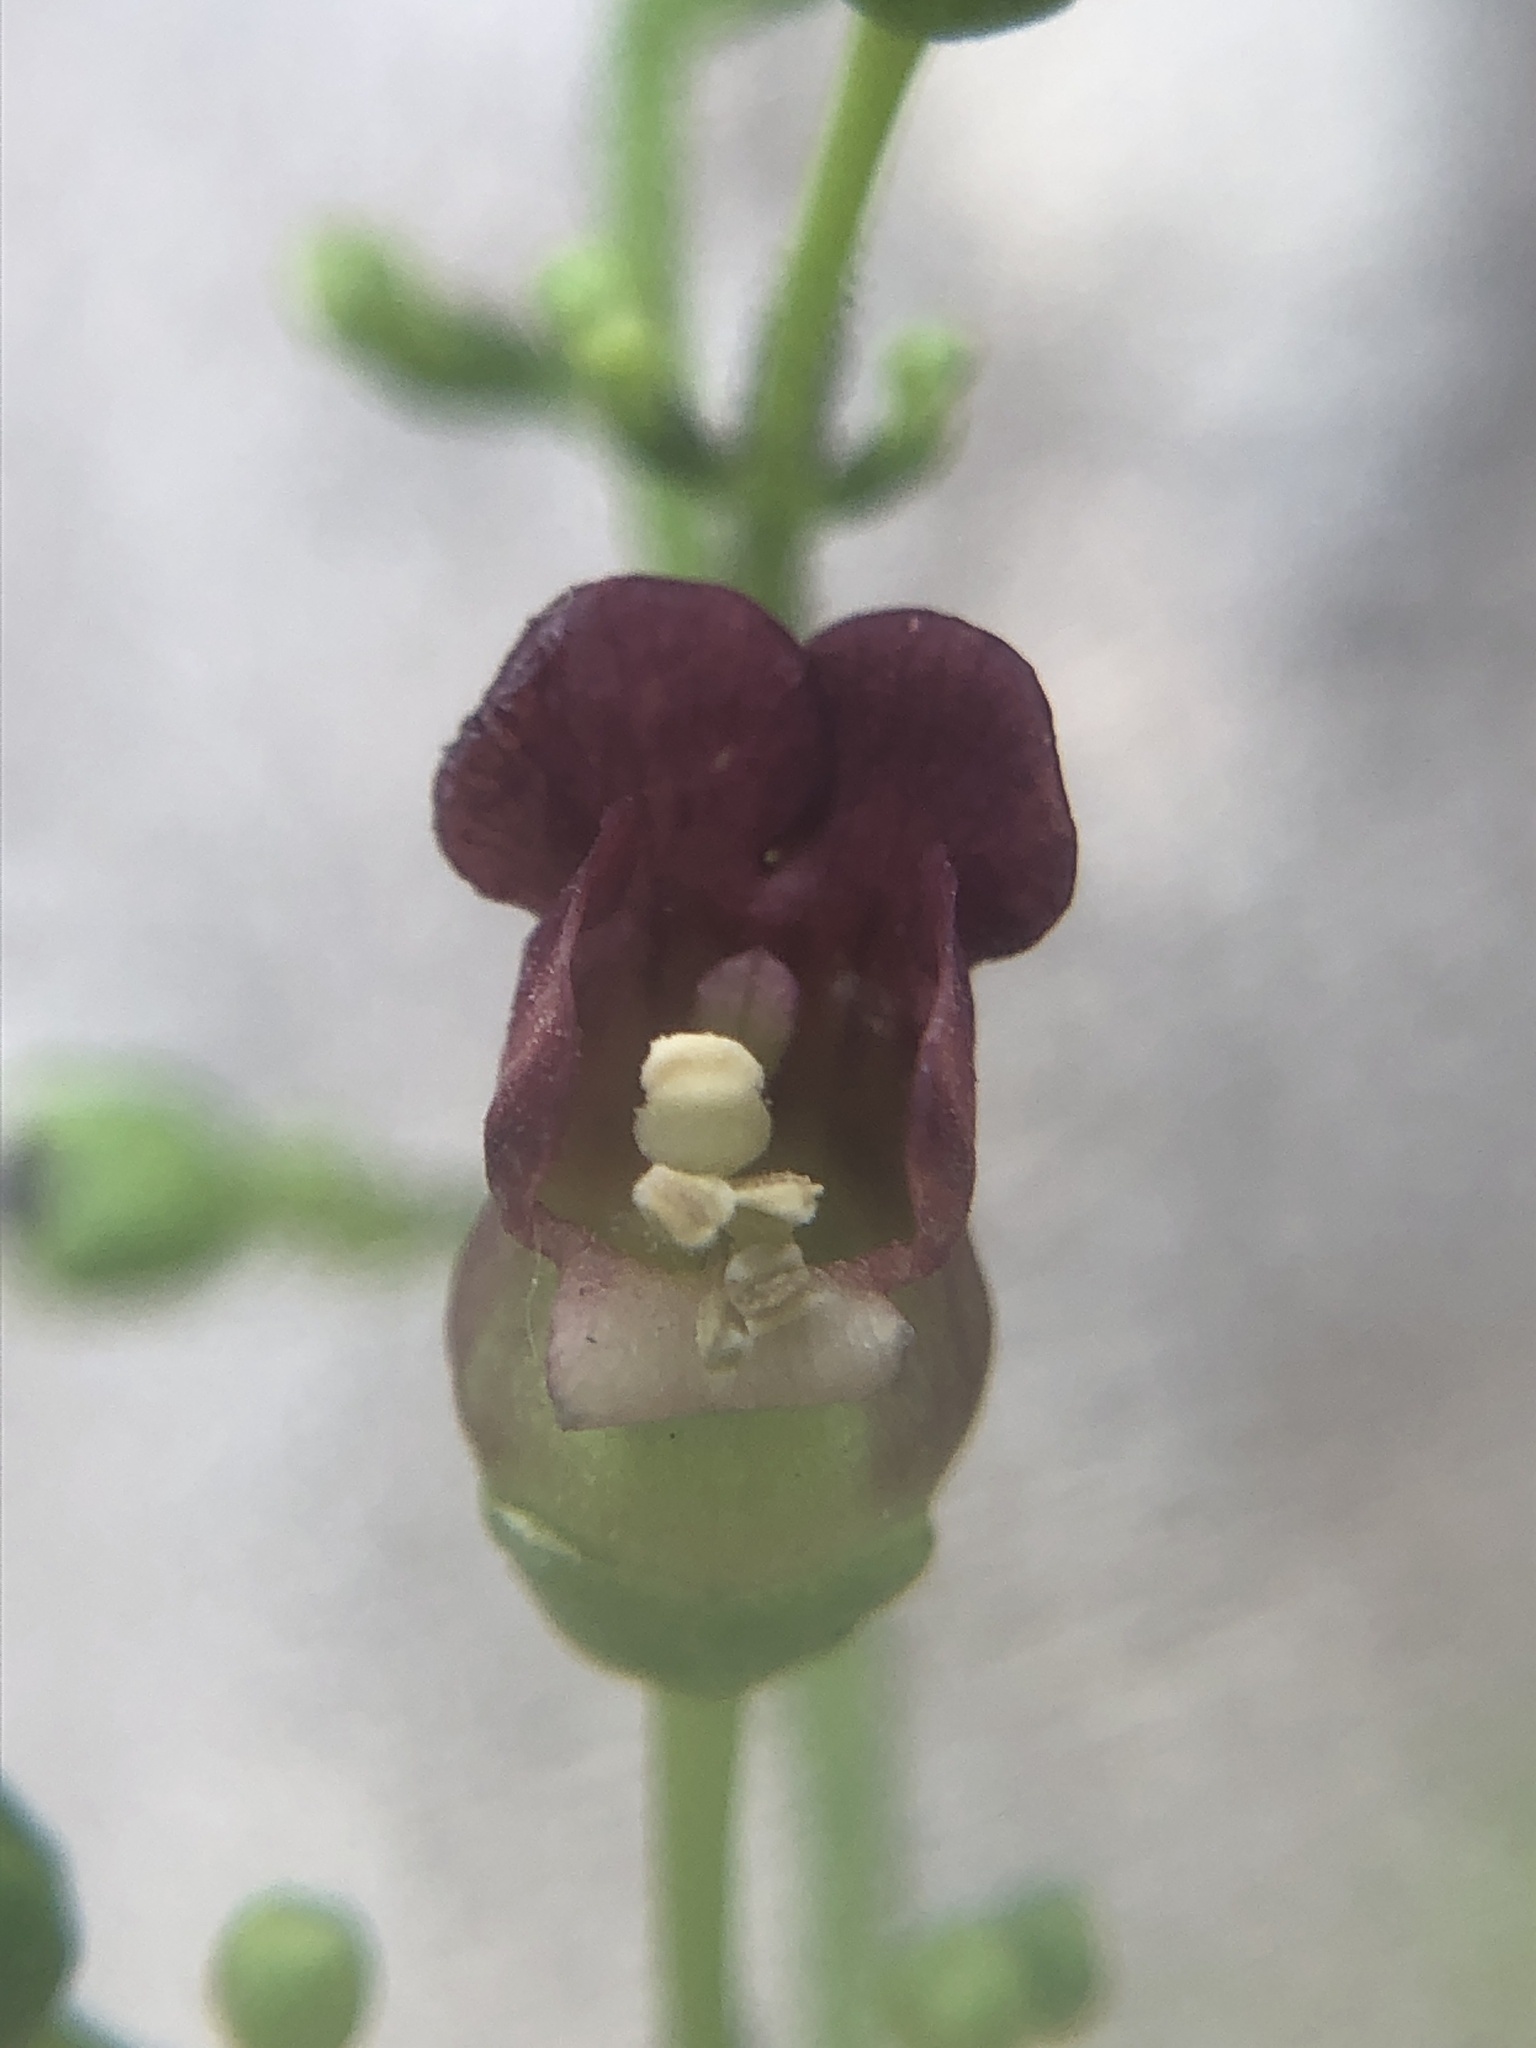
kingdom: Plantae
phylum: Tracheophyta
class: Magnoliopsida
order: Lamiales
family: Scrophulariaceae
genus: Scrophularia
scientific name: Scrophularia californica
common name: California figwort
